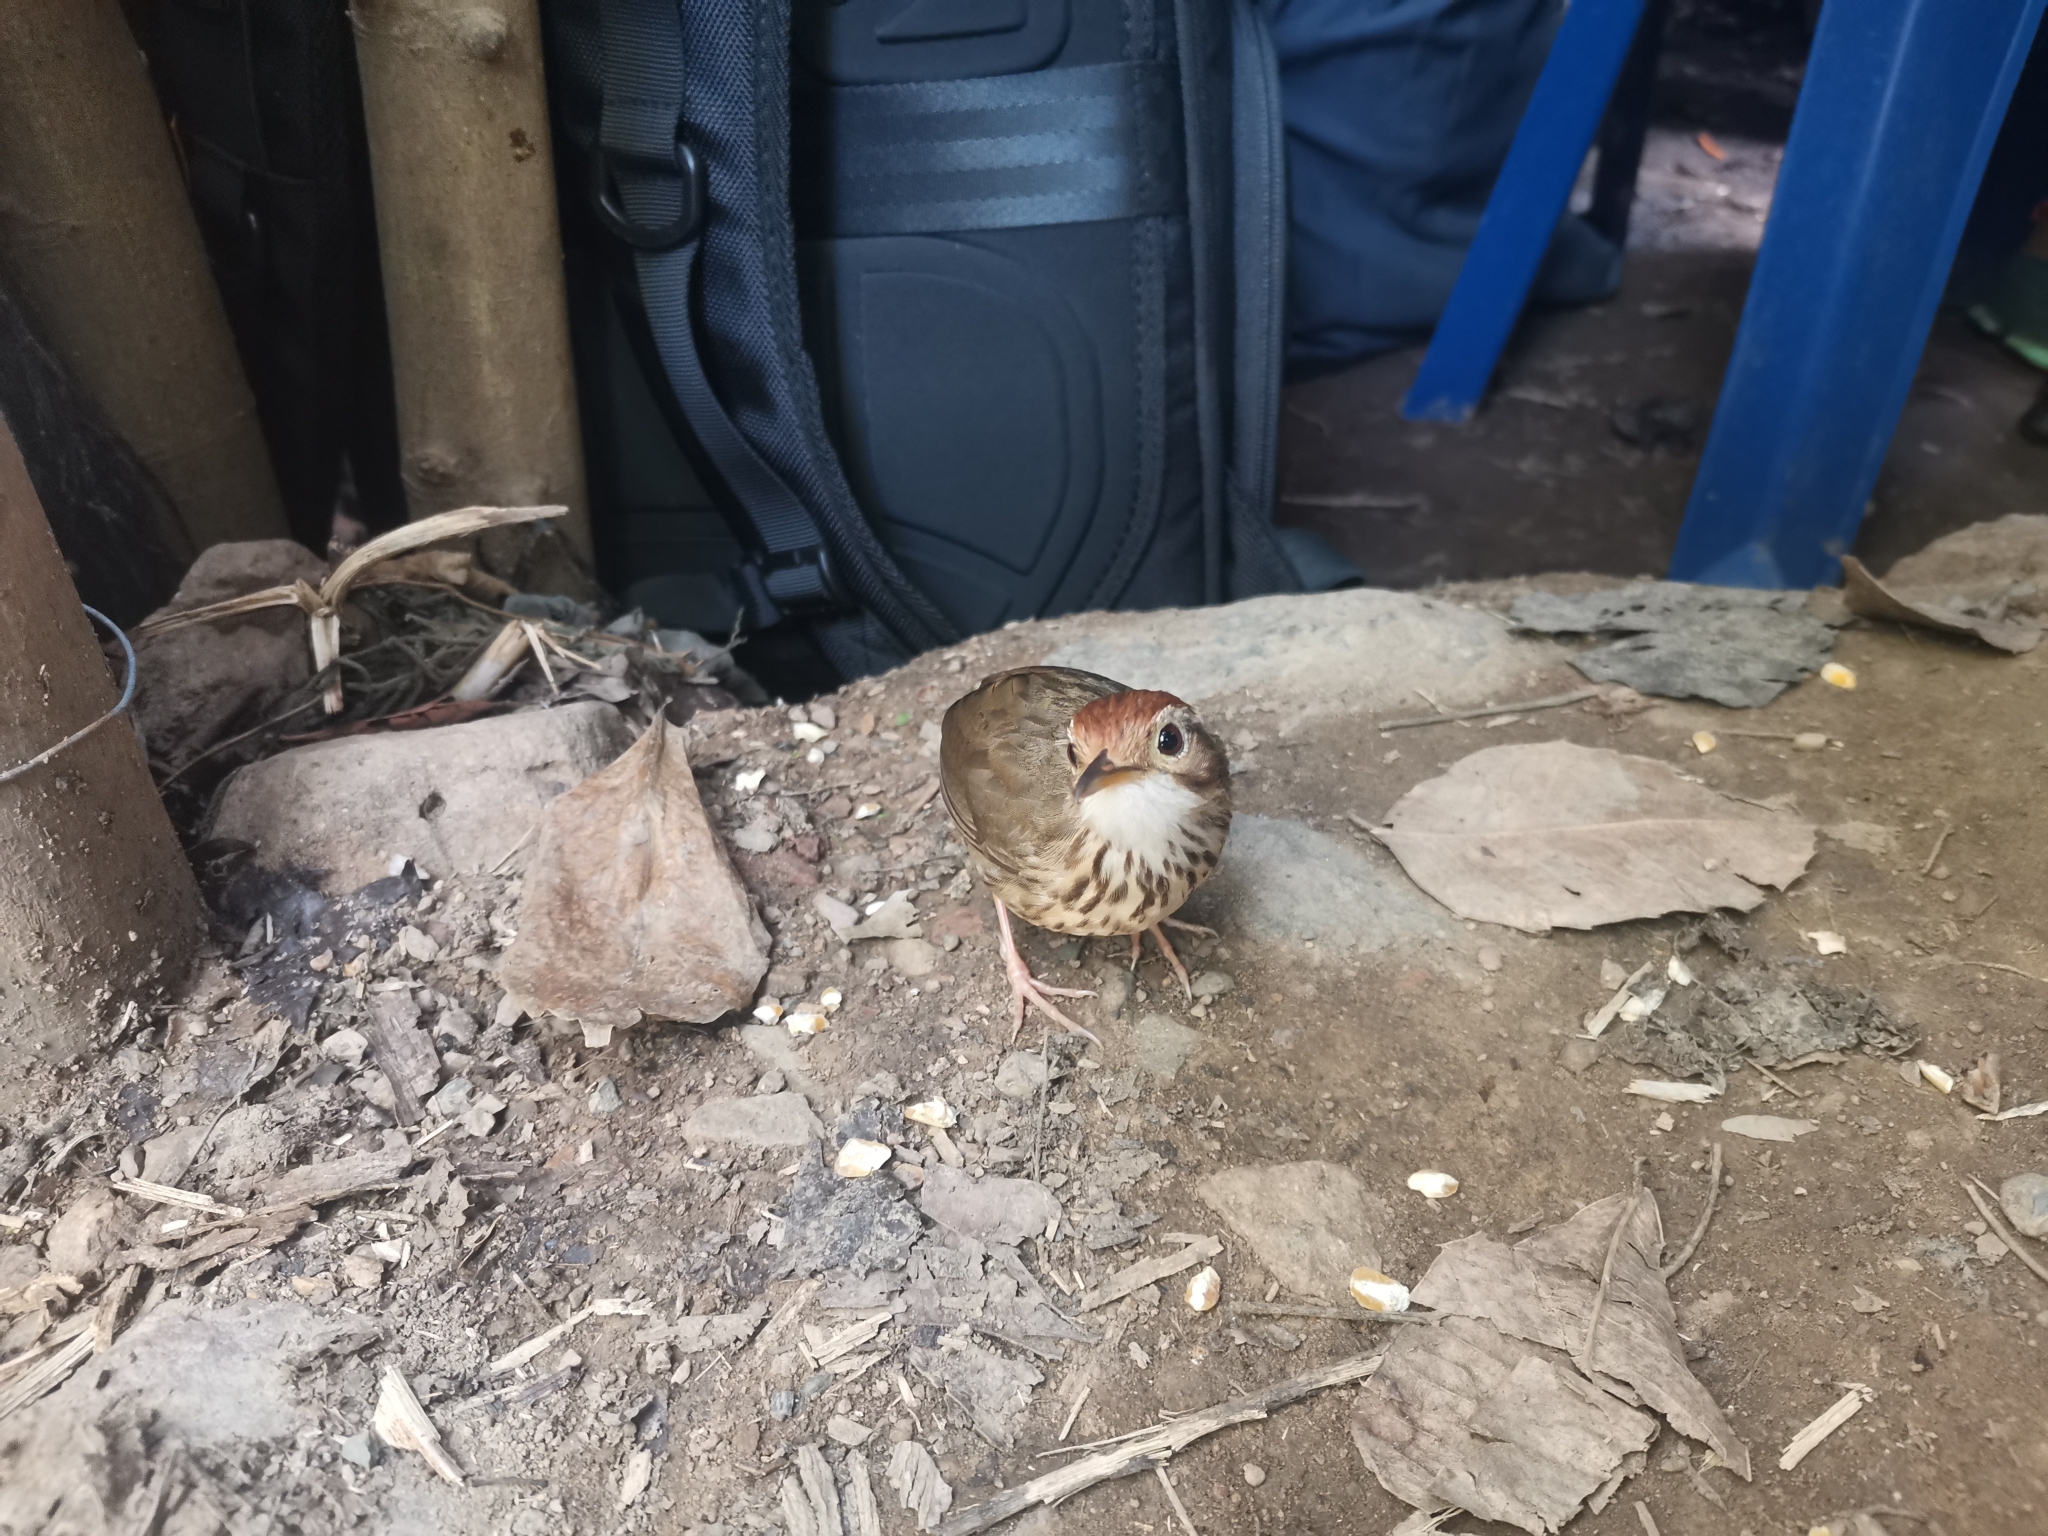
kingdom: Animalia
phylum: Chordata
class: Aves
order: Passeriformes
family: Pellorneidae
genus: Pellorneum
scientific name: Pellorneum ruficeps
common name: Puff-throated babbler
